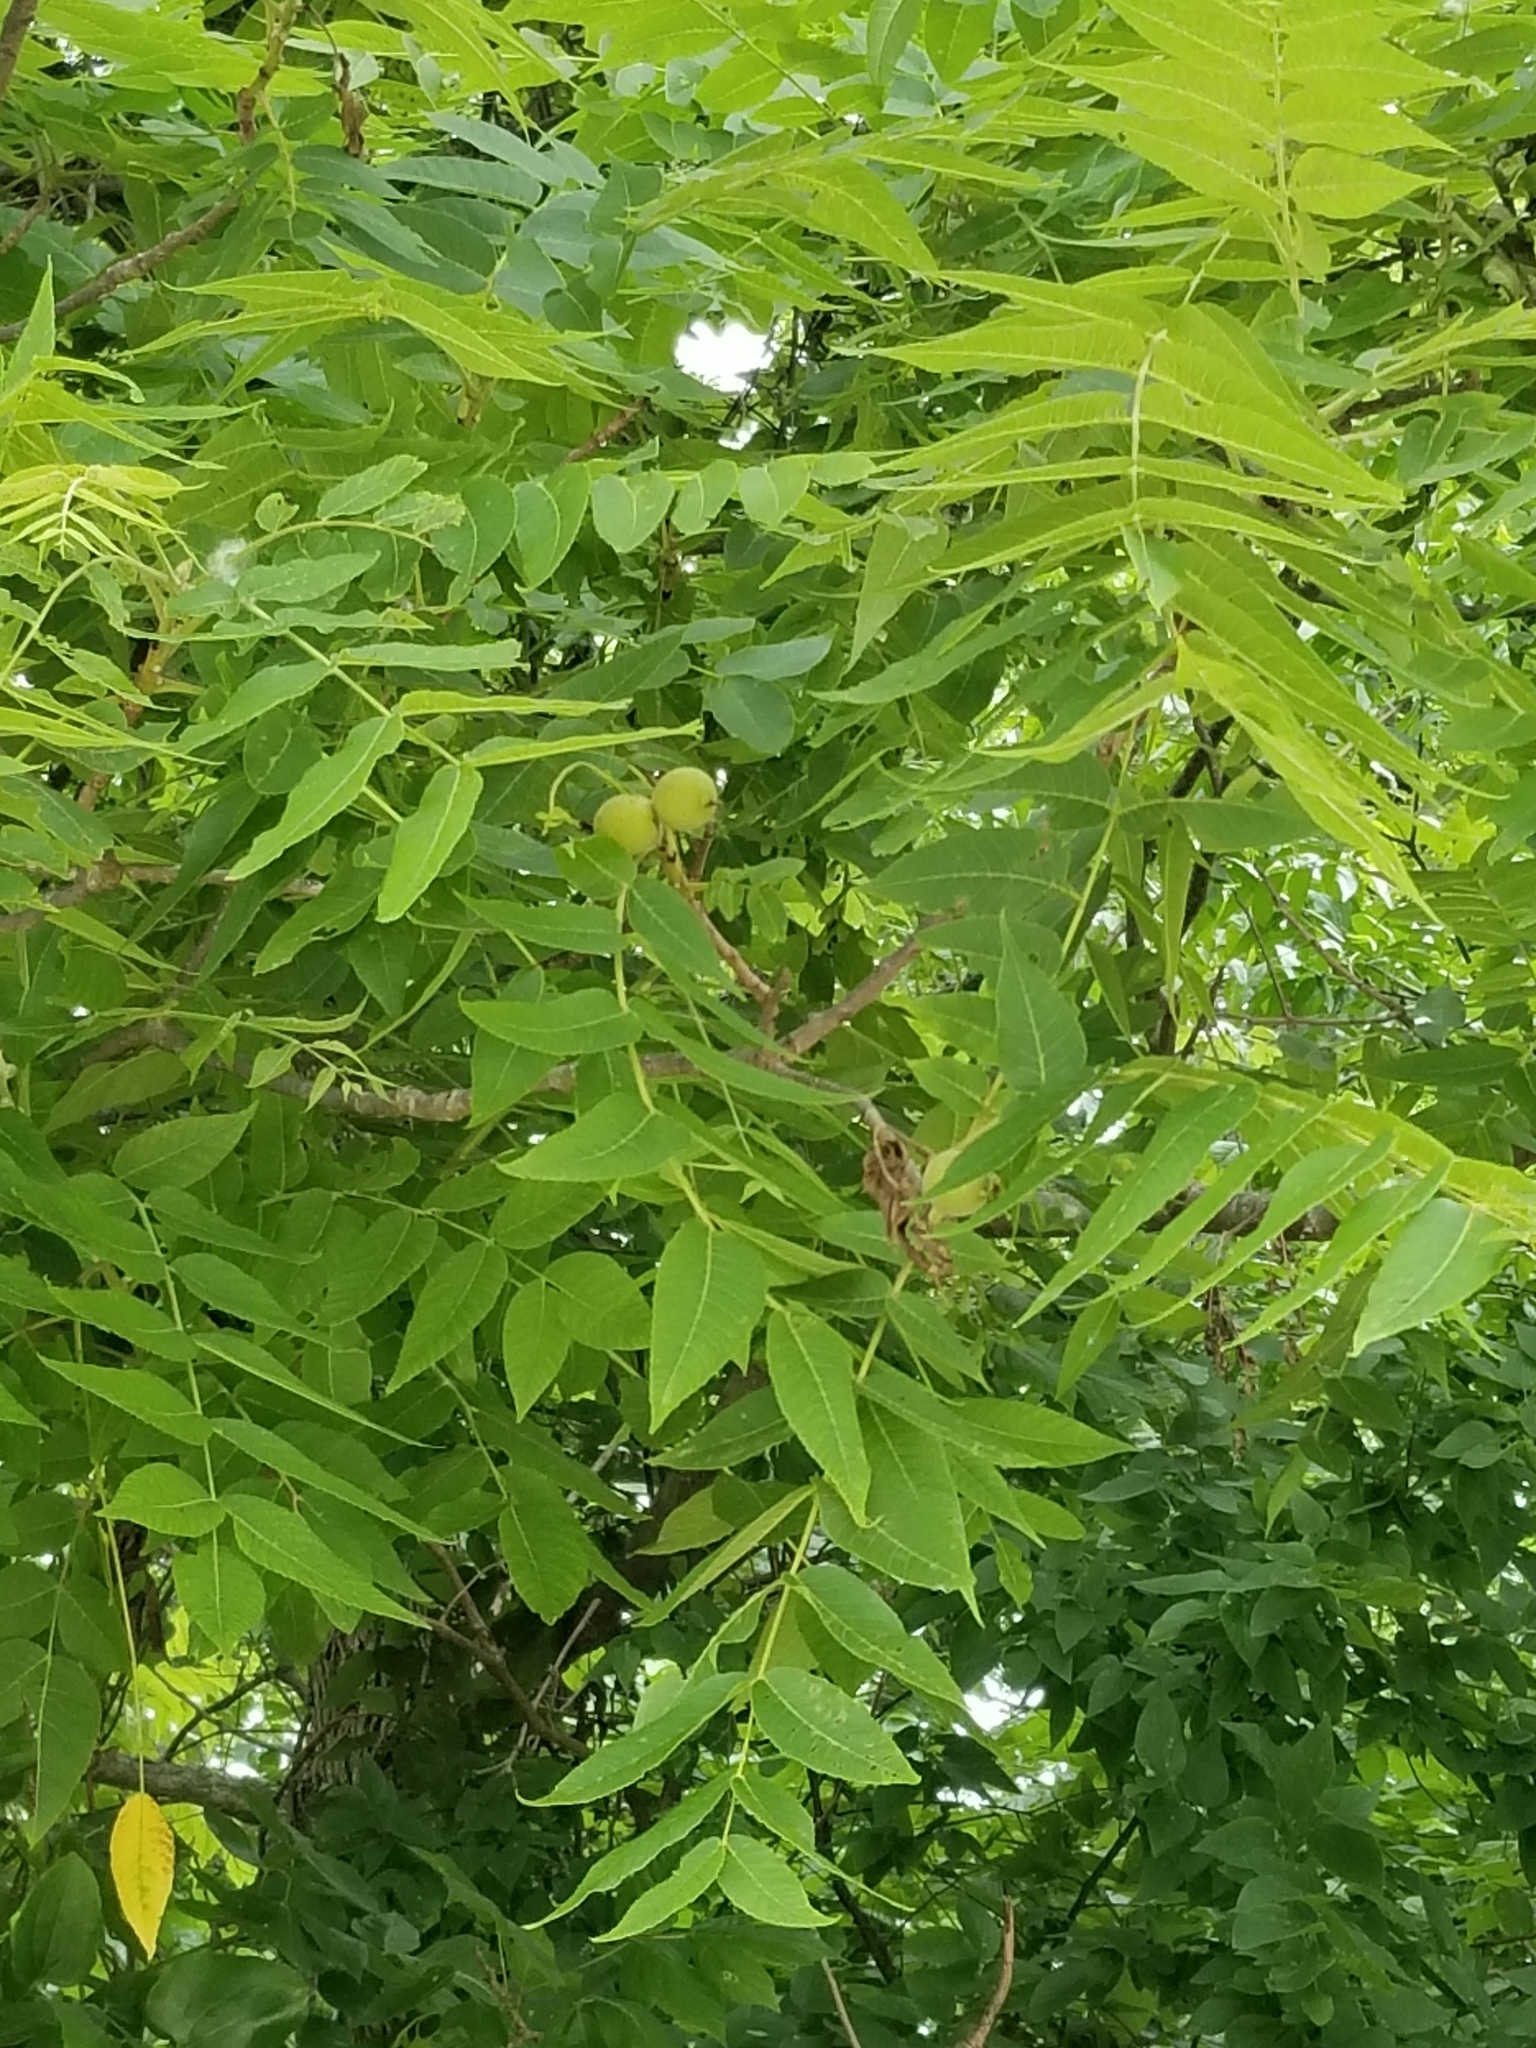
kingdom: Plantae
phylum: Tracheophyta
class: Magnoliopsida
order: Fagales
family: Juglandaceae
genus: Juglans
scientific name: Juglans nigra
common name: Black walnut
